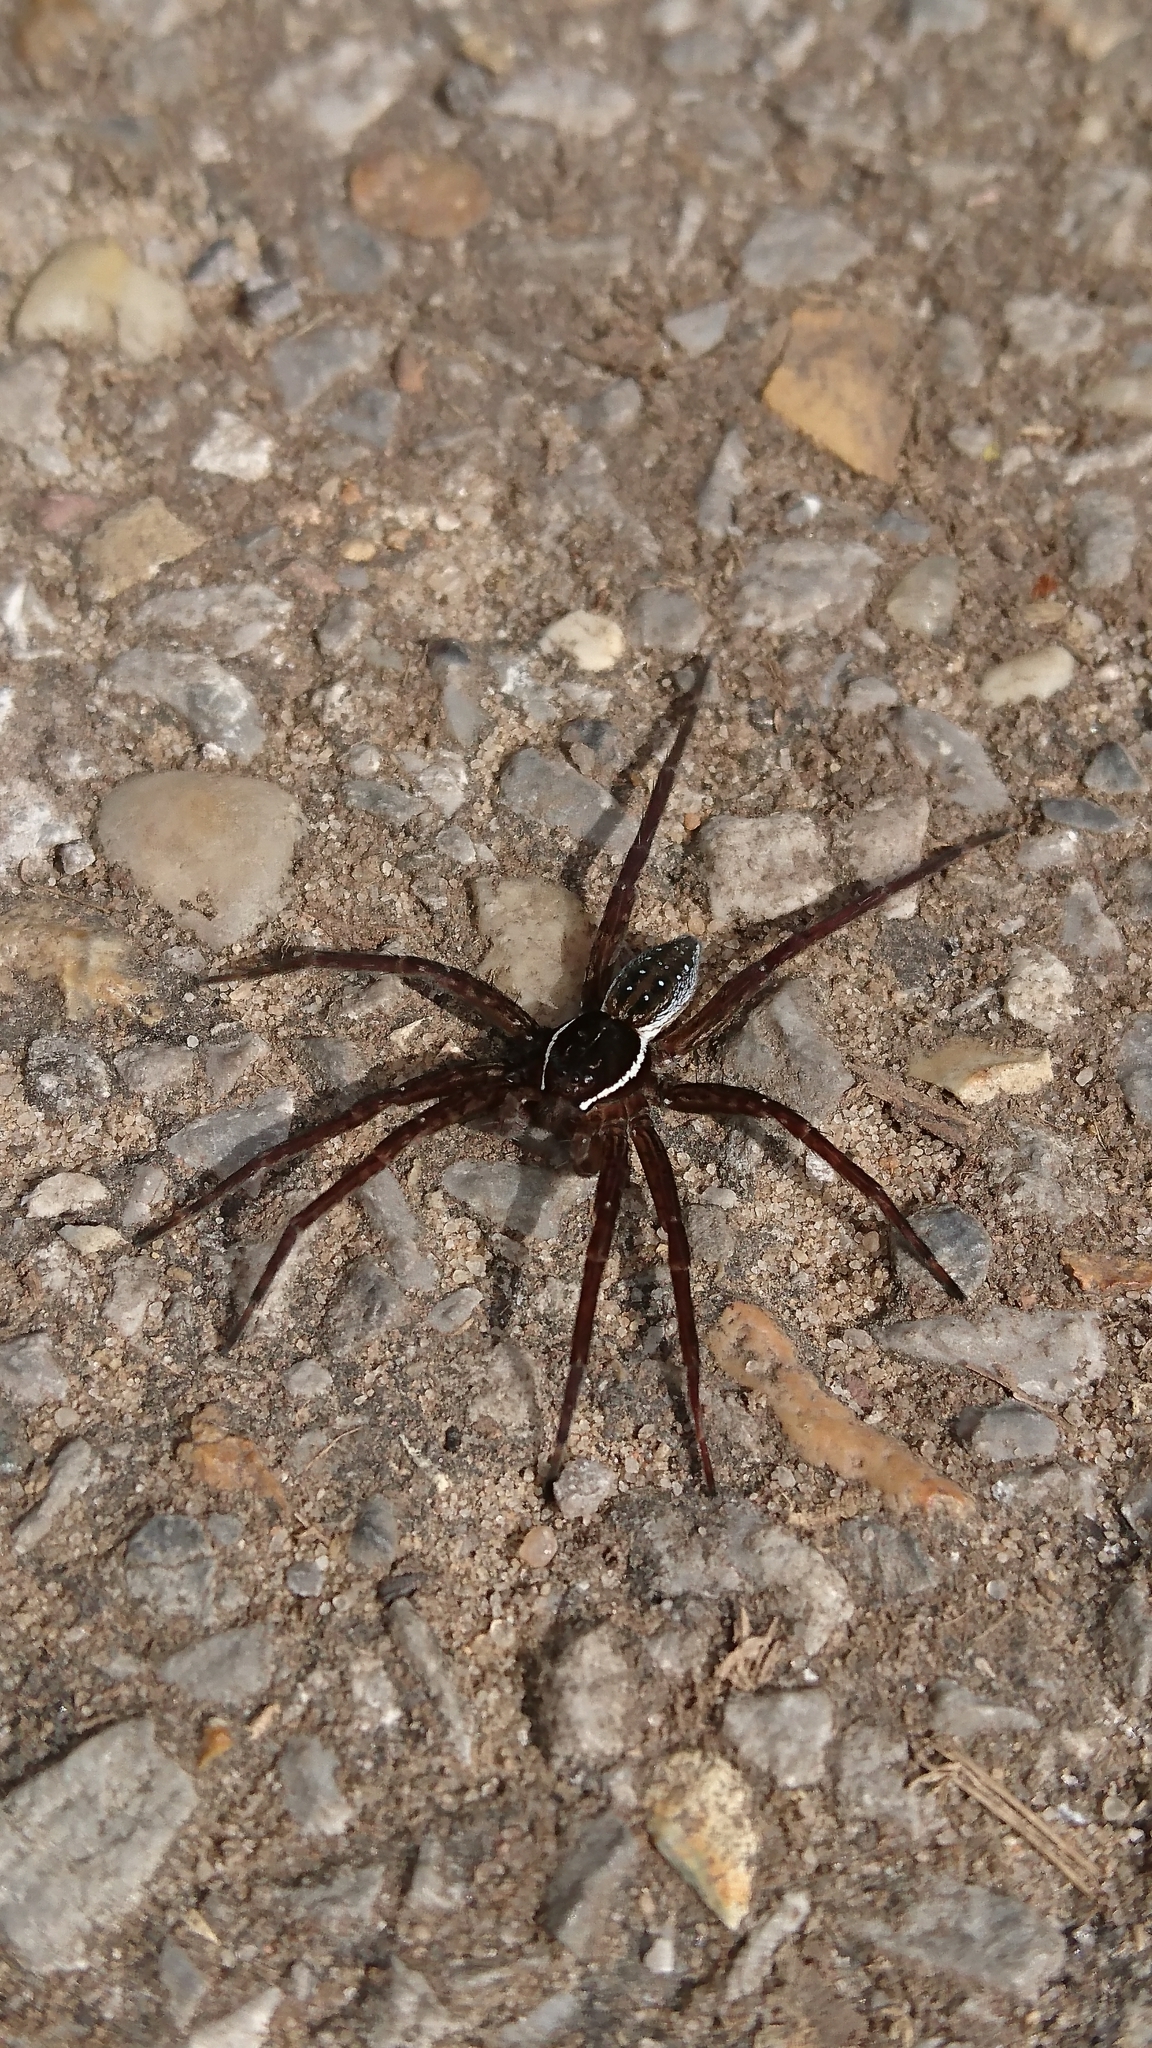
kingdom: Animalia
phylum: Arthropoda
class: Arachnida
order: Araneae
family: Pisauridae
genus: Dolomedes
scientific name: Dolomedes triton
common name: Six-spotted fishing spider
